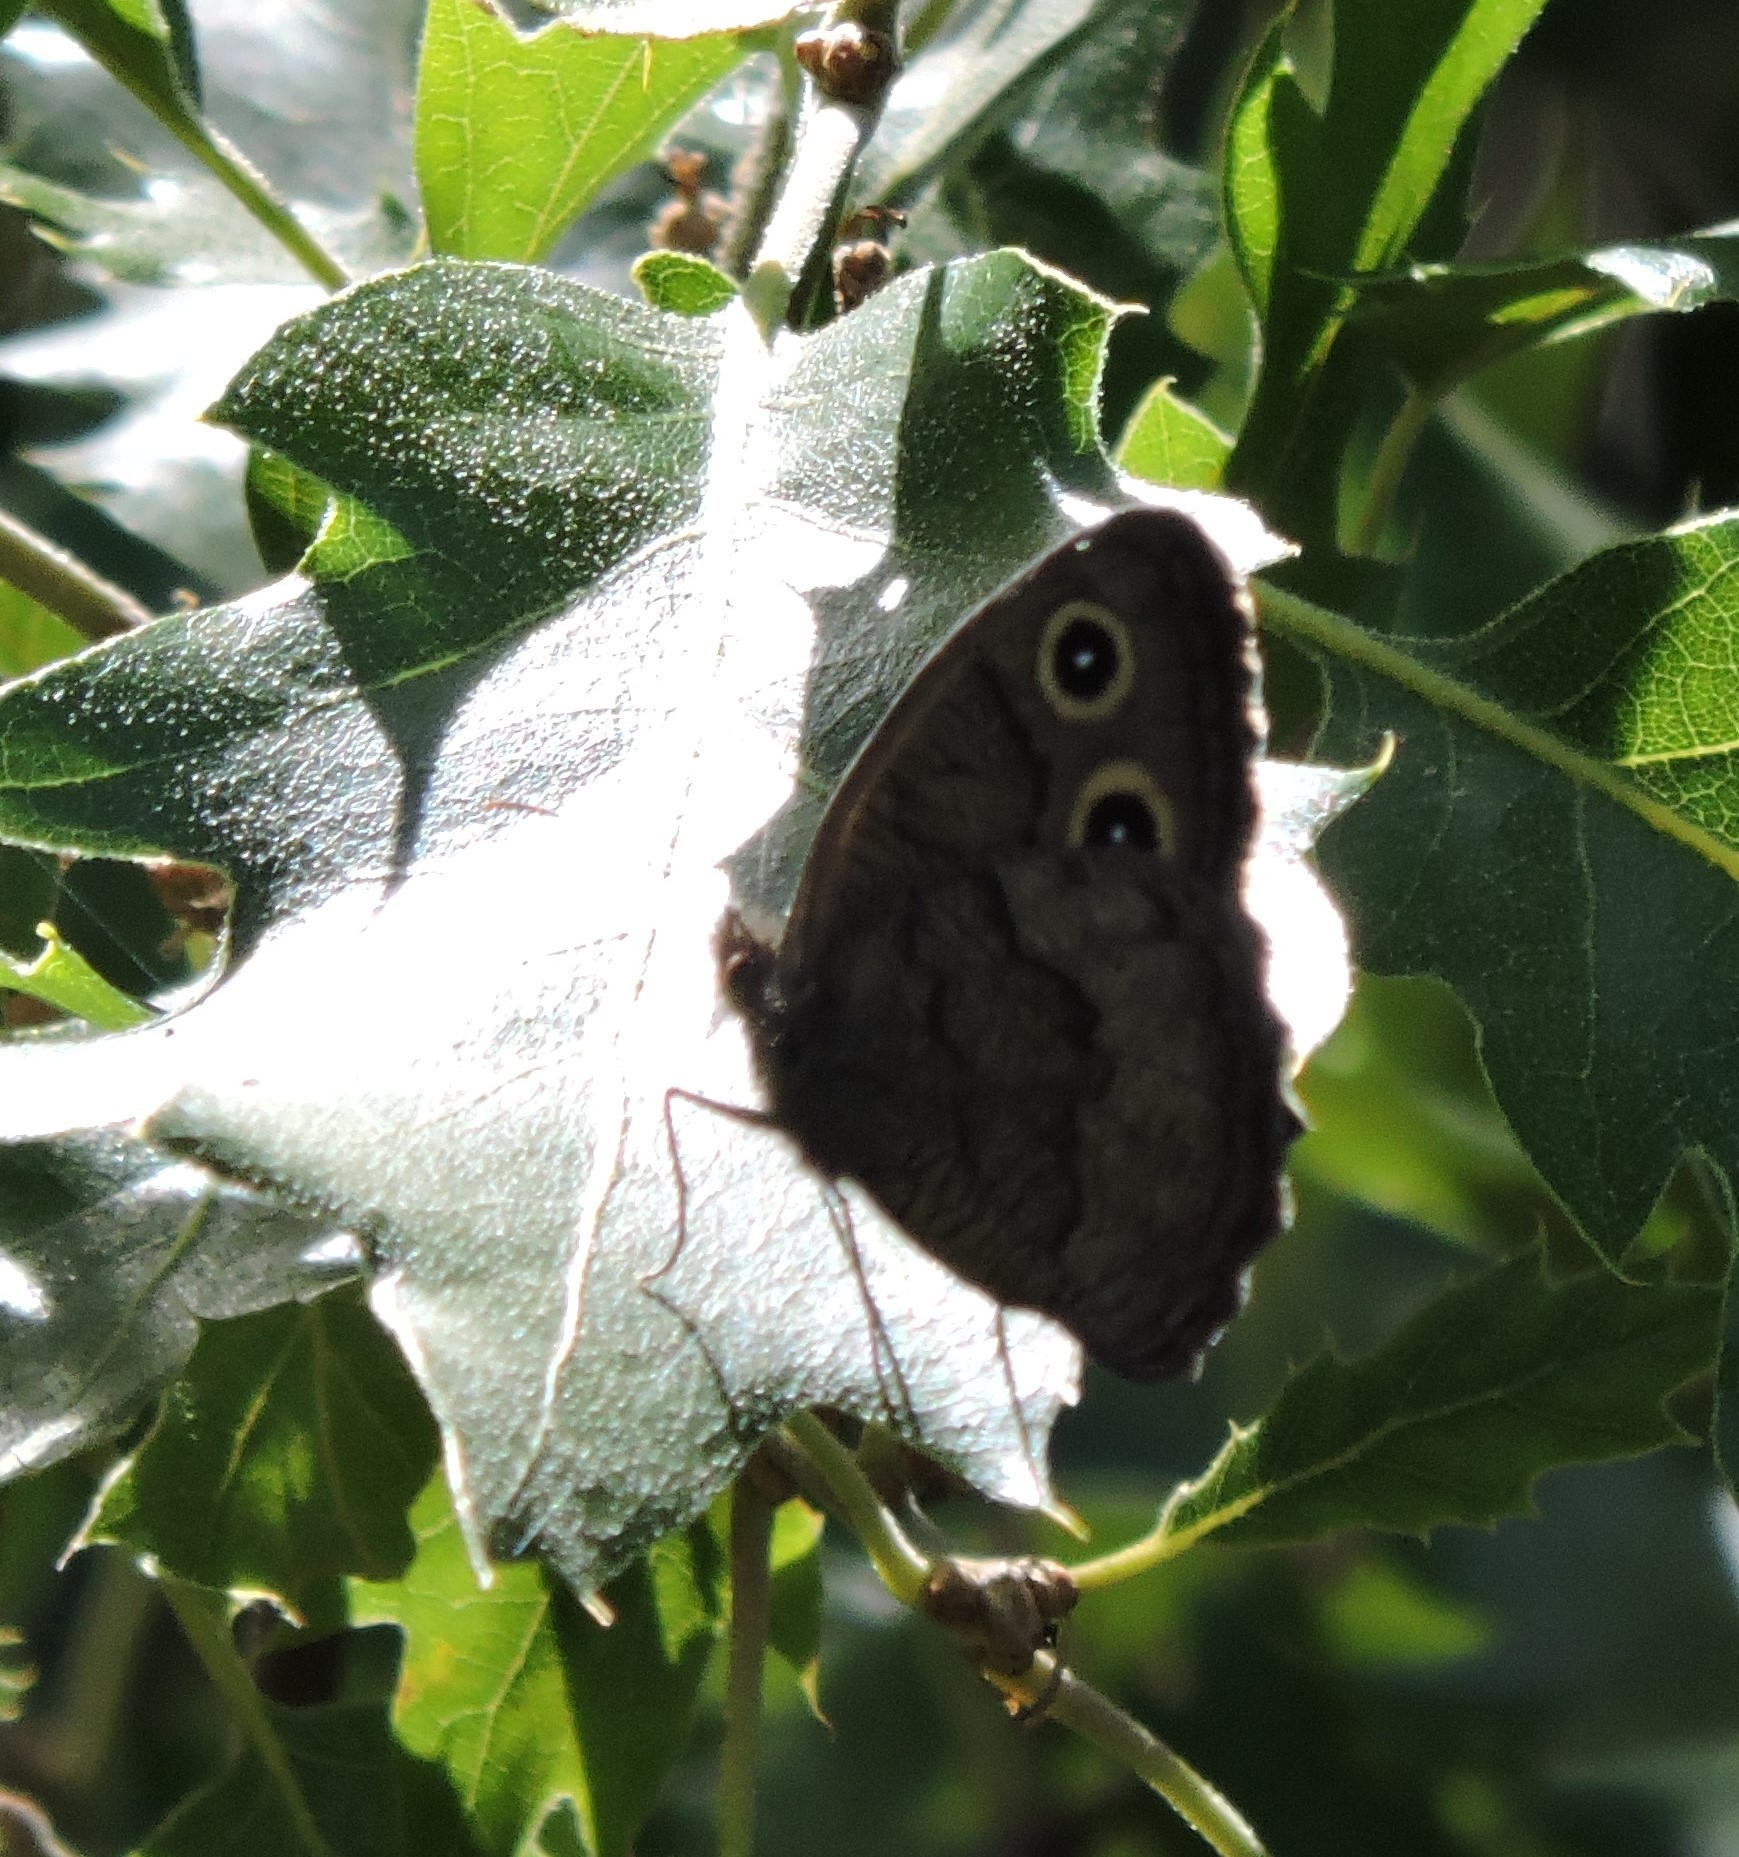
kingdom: Animalia
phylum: Arthropoda
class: Insecta
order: Lepidoptera
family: Nymphalidae
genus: Cercyonis
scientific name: Cercyonis pegala
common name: Common wood-nymph
